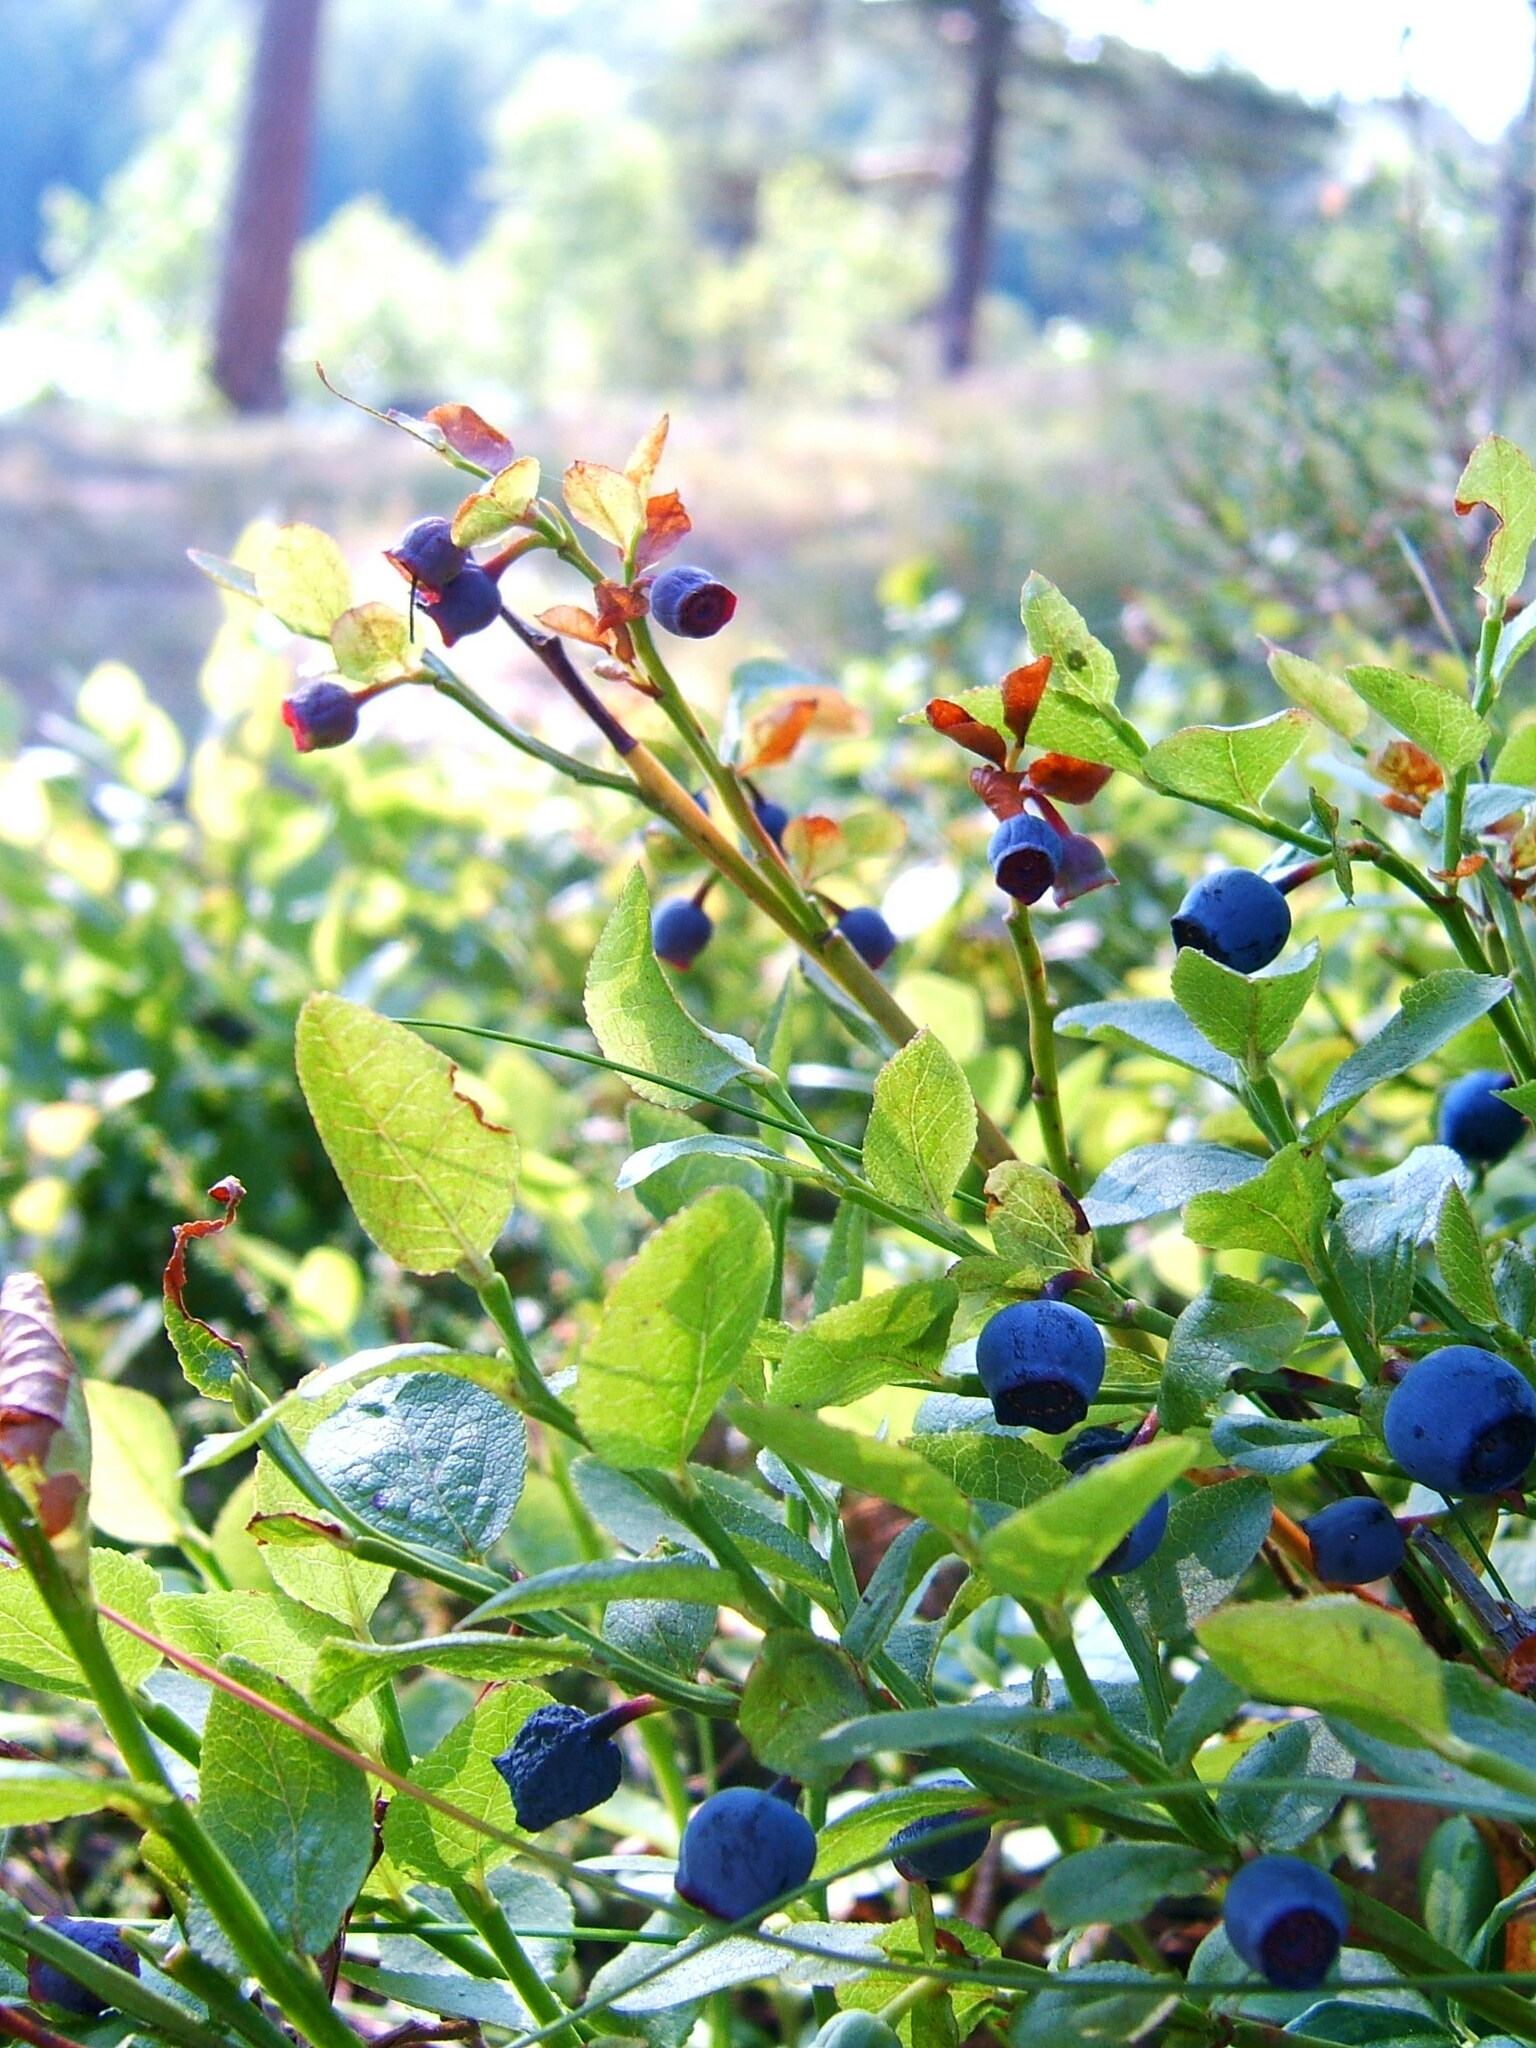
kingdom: Plantae
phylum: Tracheophyta
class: Magnoliopsida
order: Ericales
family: Ericaceae
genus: Vaccinium
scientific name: Vaccinium myrtillus
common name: Bilberry
